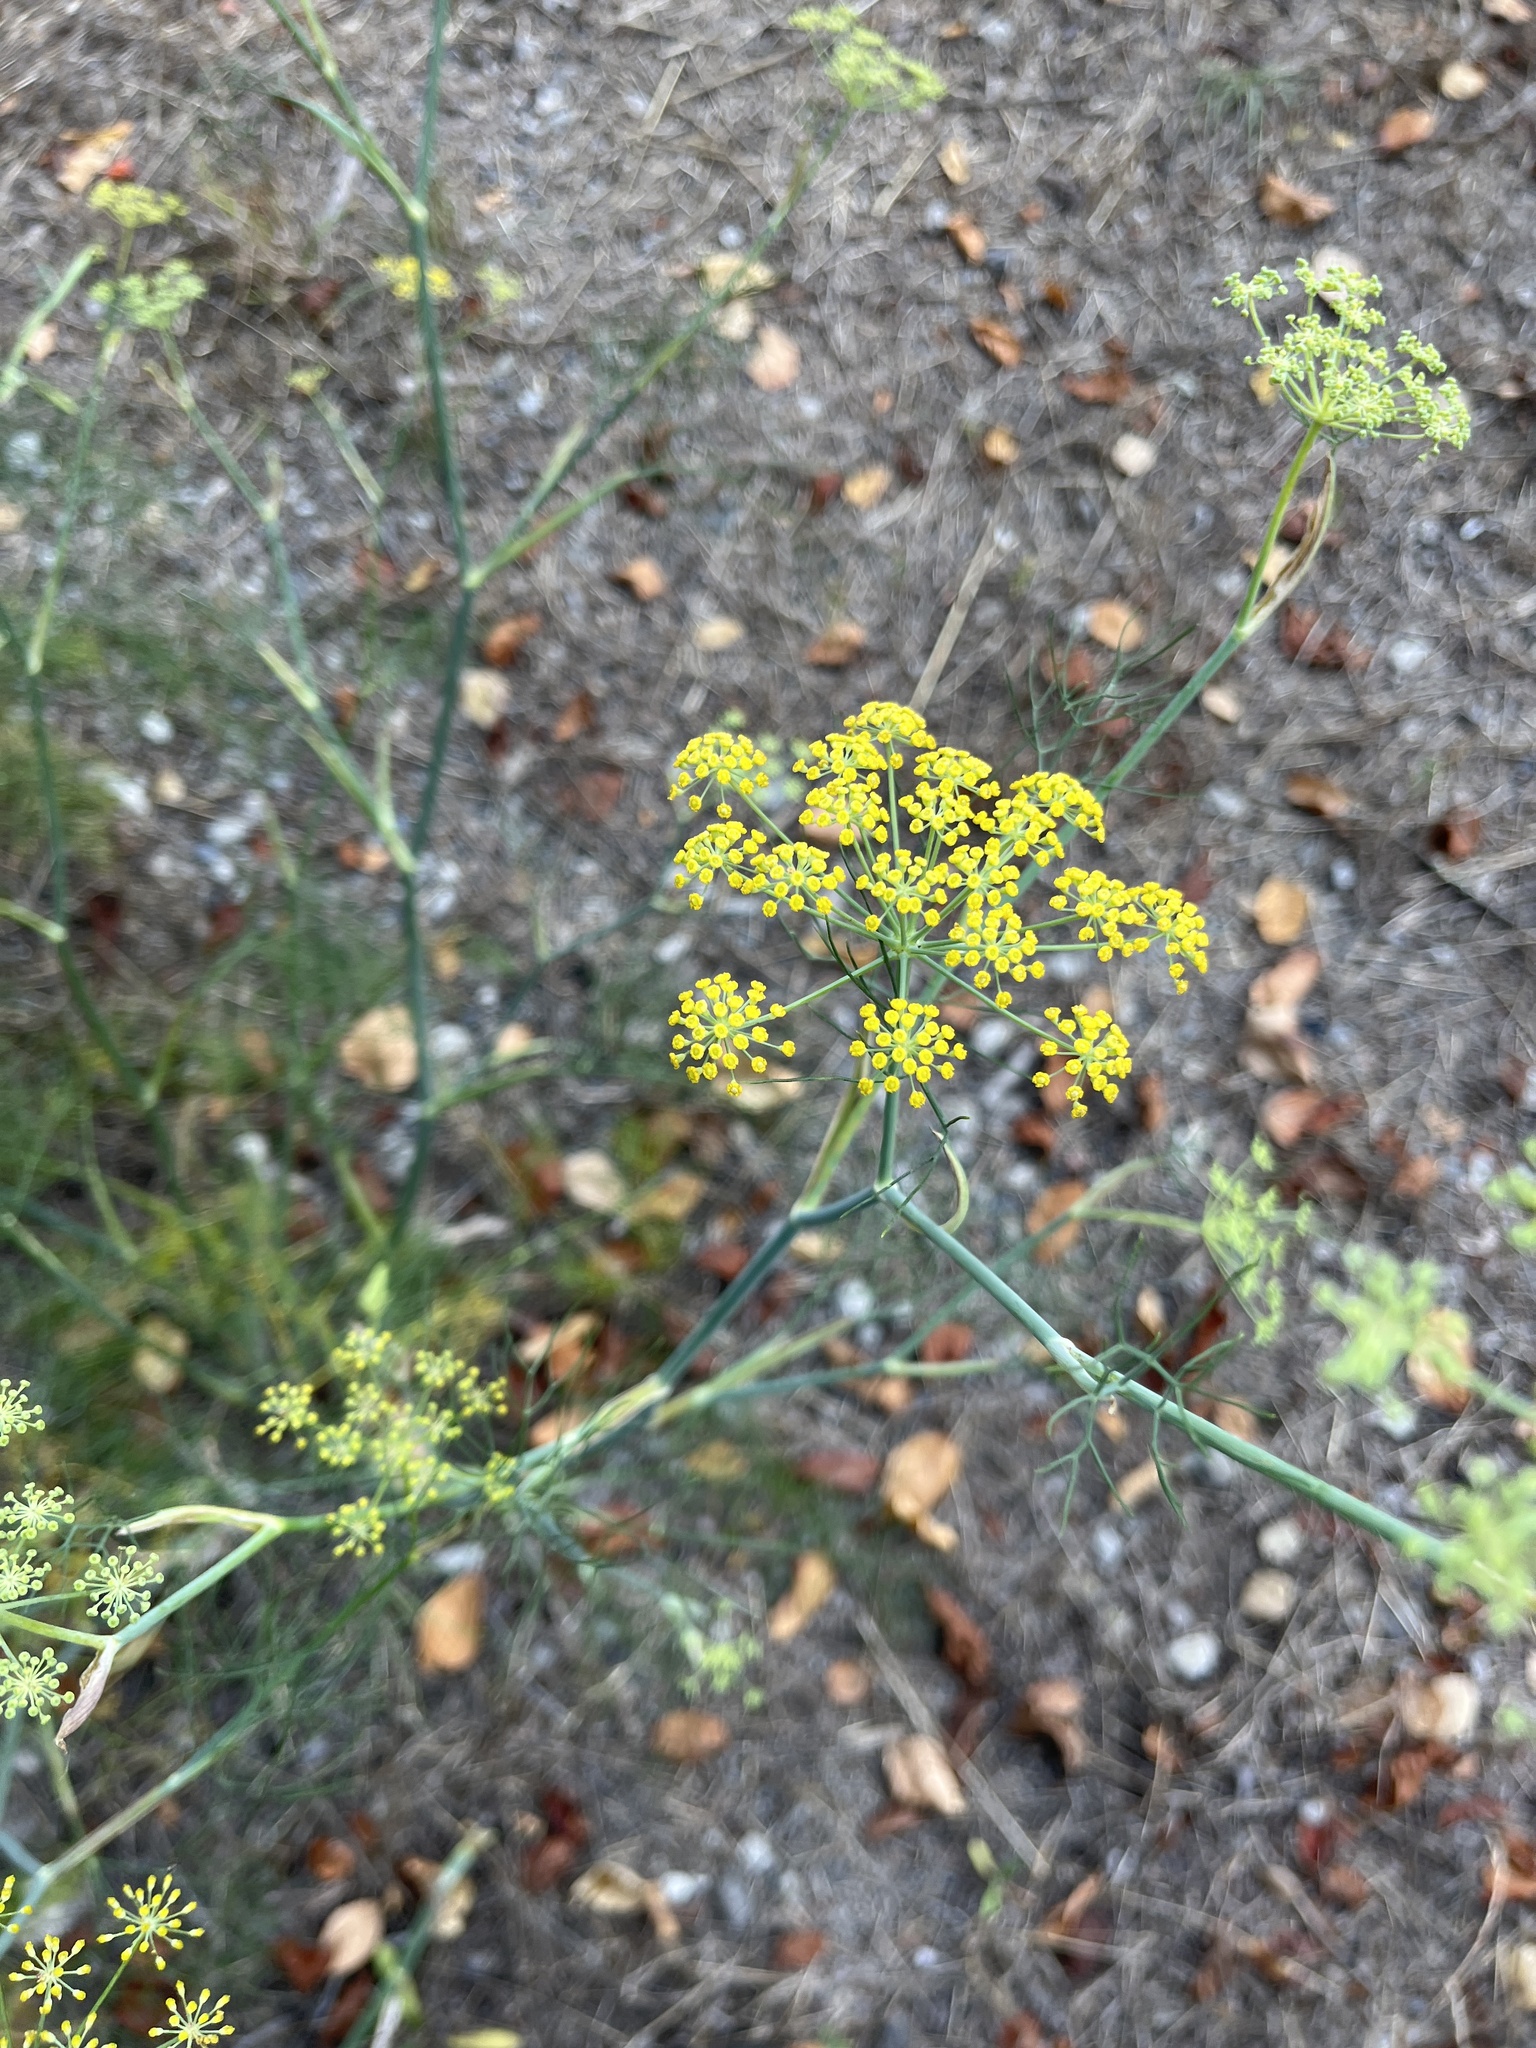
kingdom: Plantae
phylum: Tracheophyta
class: Magnoliopsida
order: Apiales
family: Apiaceae
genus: Foeniculum
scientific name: Foeniculum vulgare
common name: Fennel
